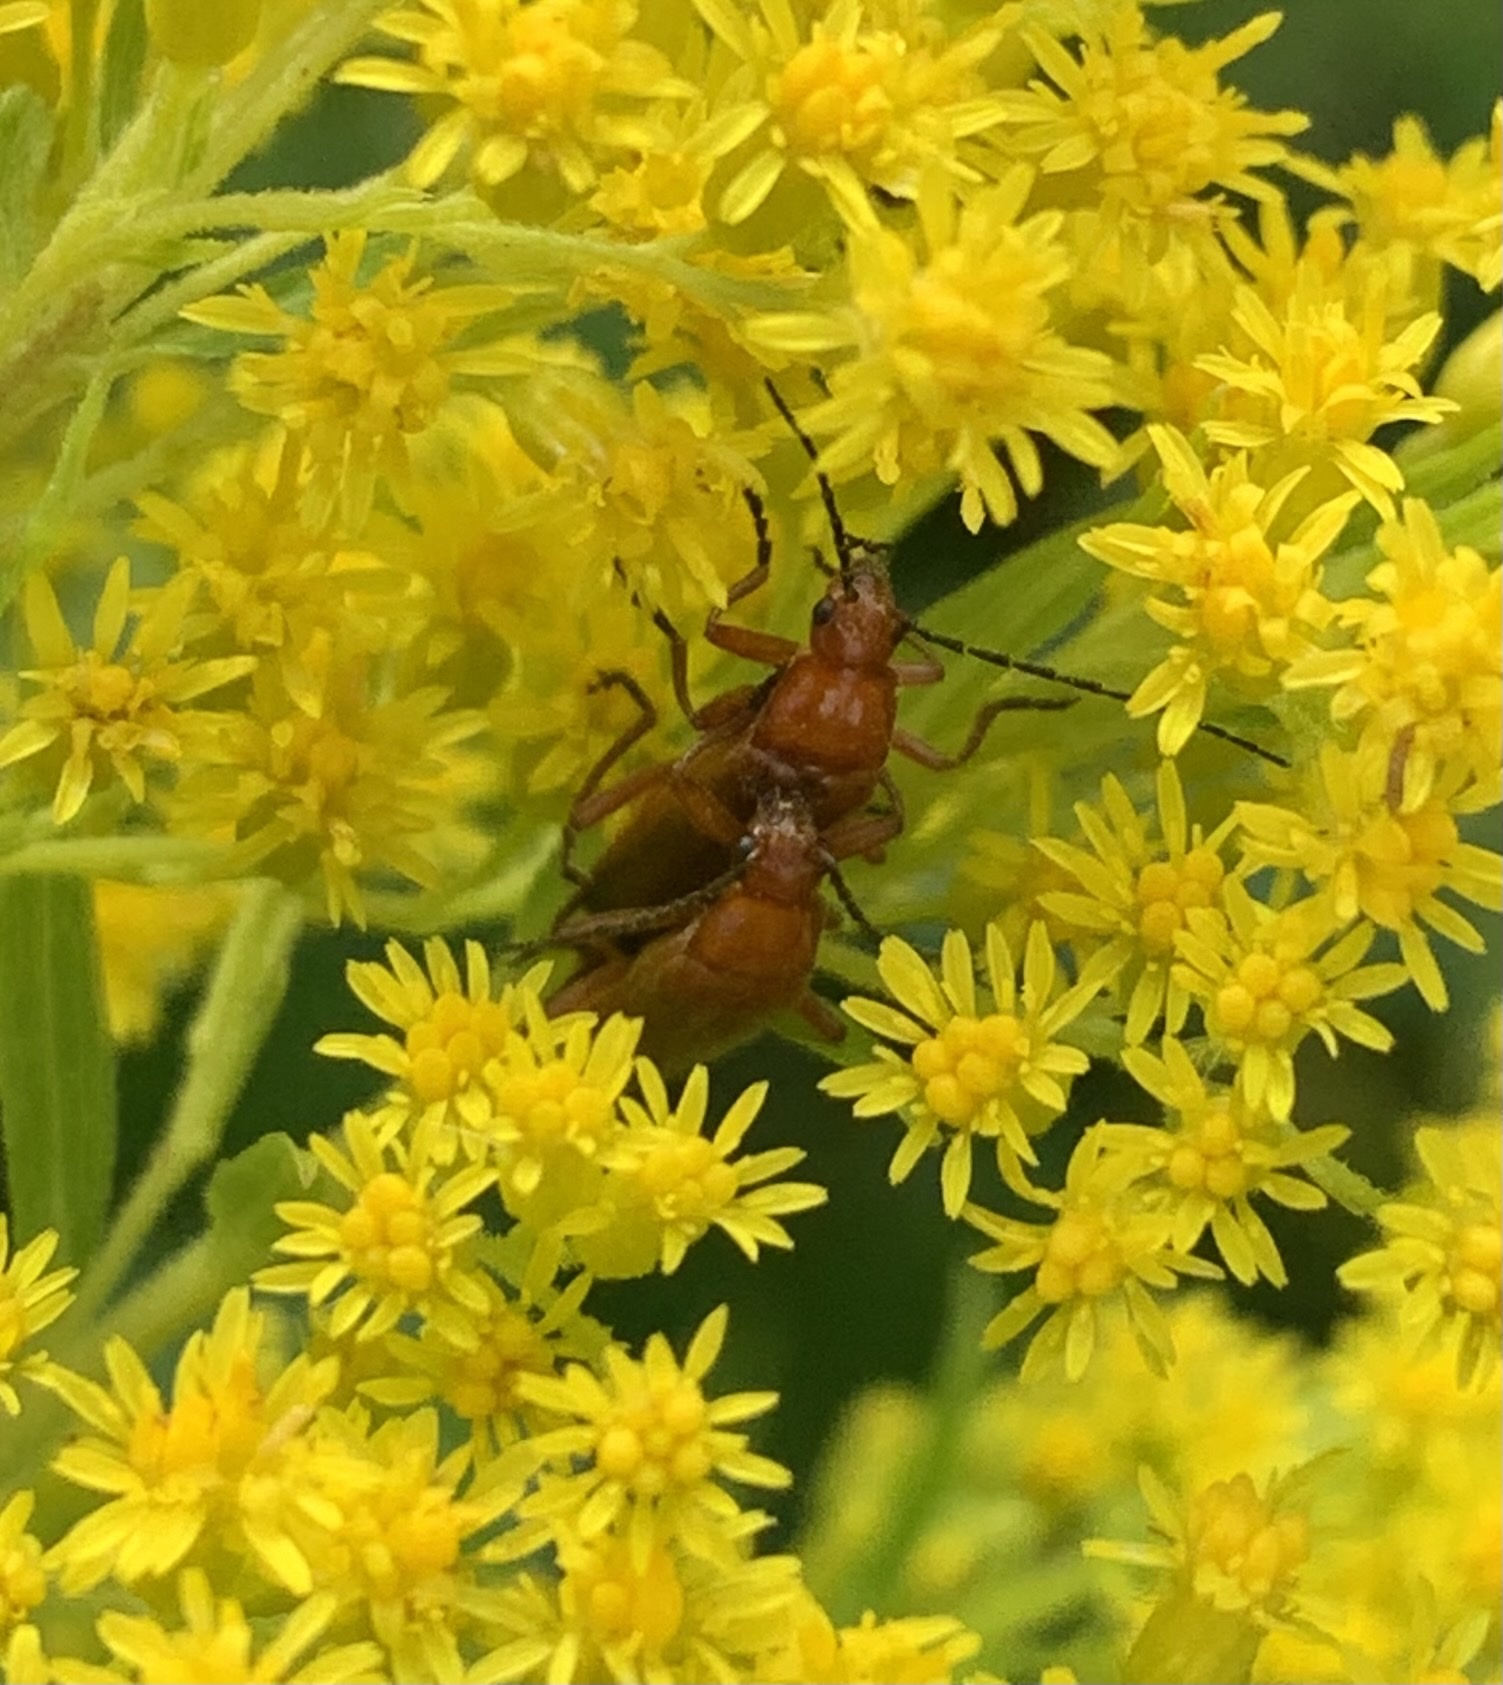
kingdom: Animalia
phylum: Arthropoda
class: Insecta
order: Coleoptera
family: Cantharidae
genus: Rhagonycha
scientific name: Rhagonycha fulva
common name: Common red soldier beetle
